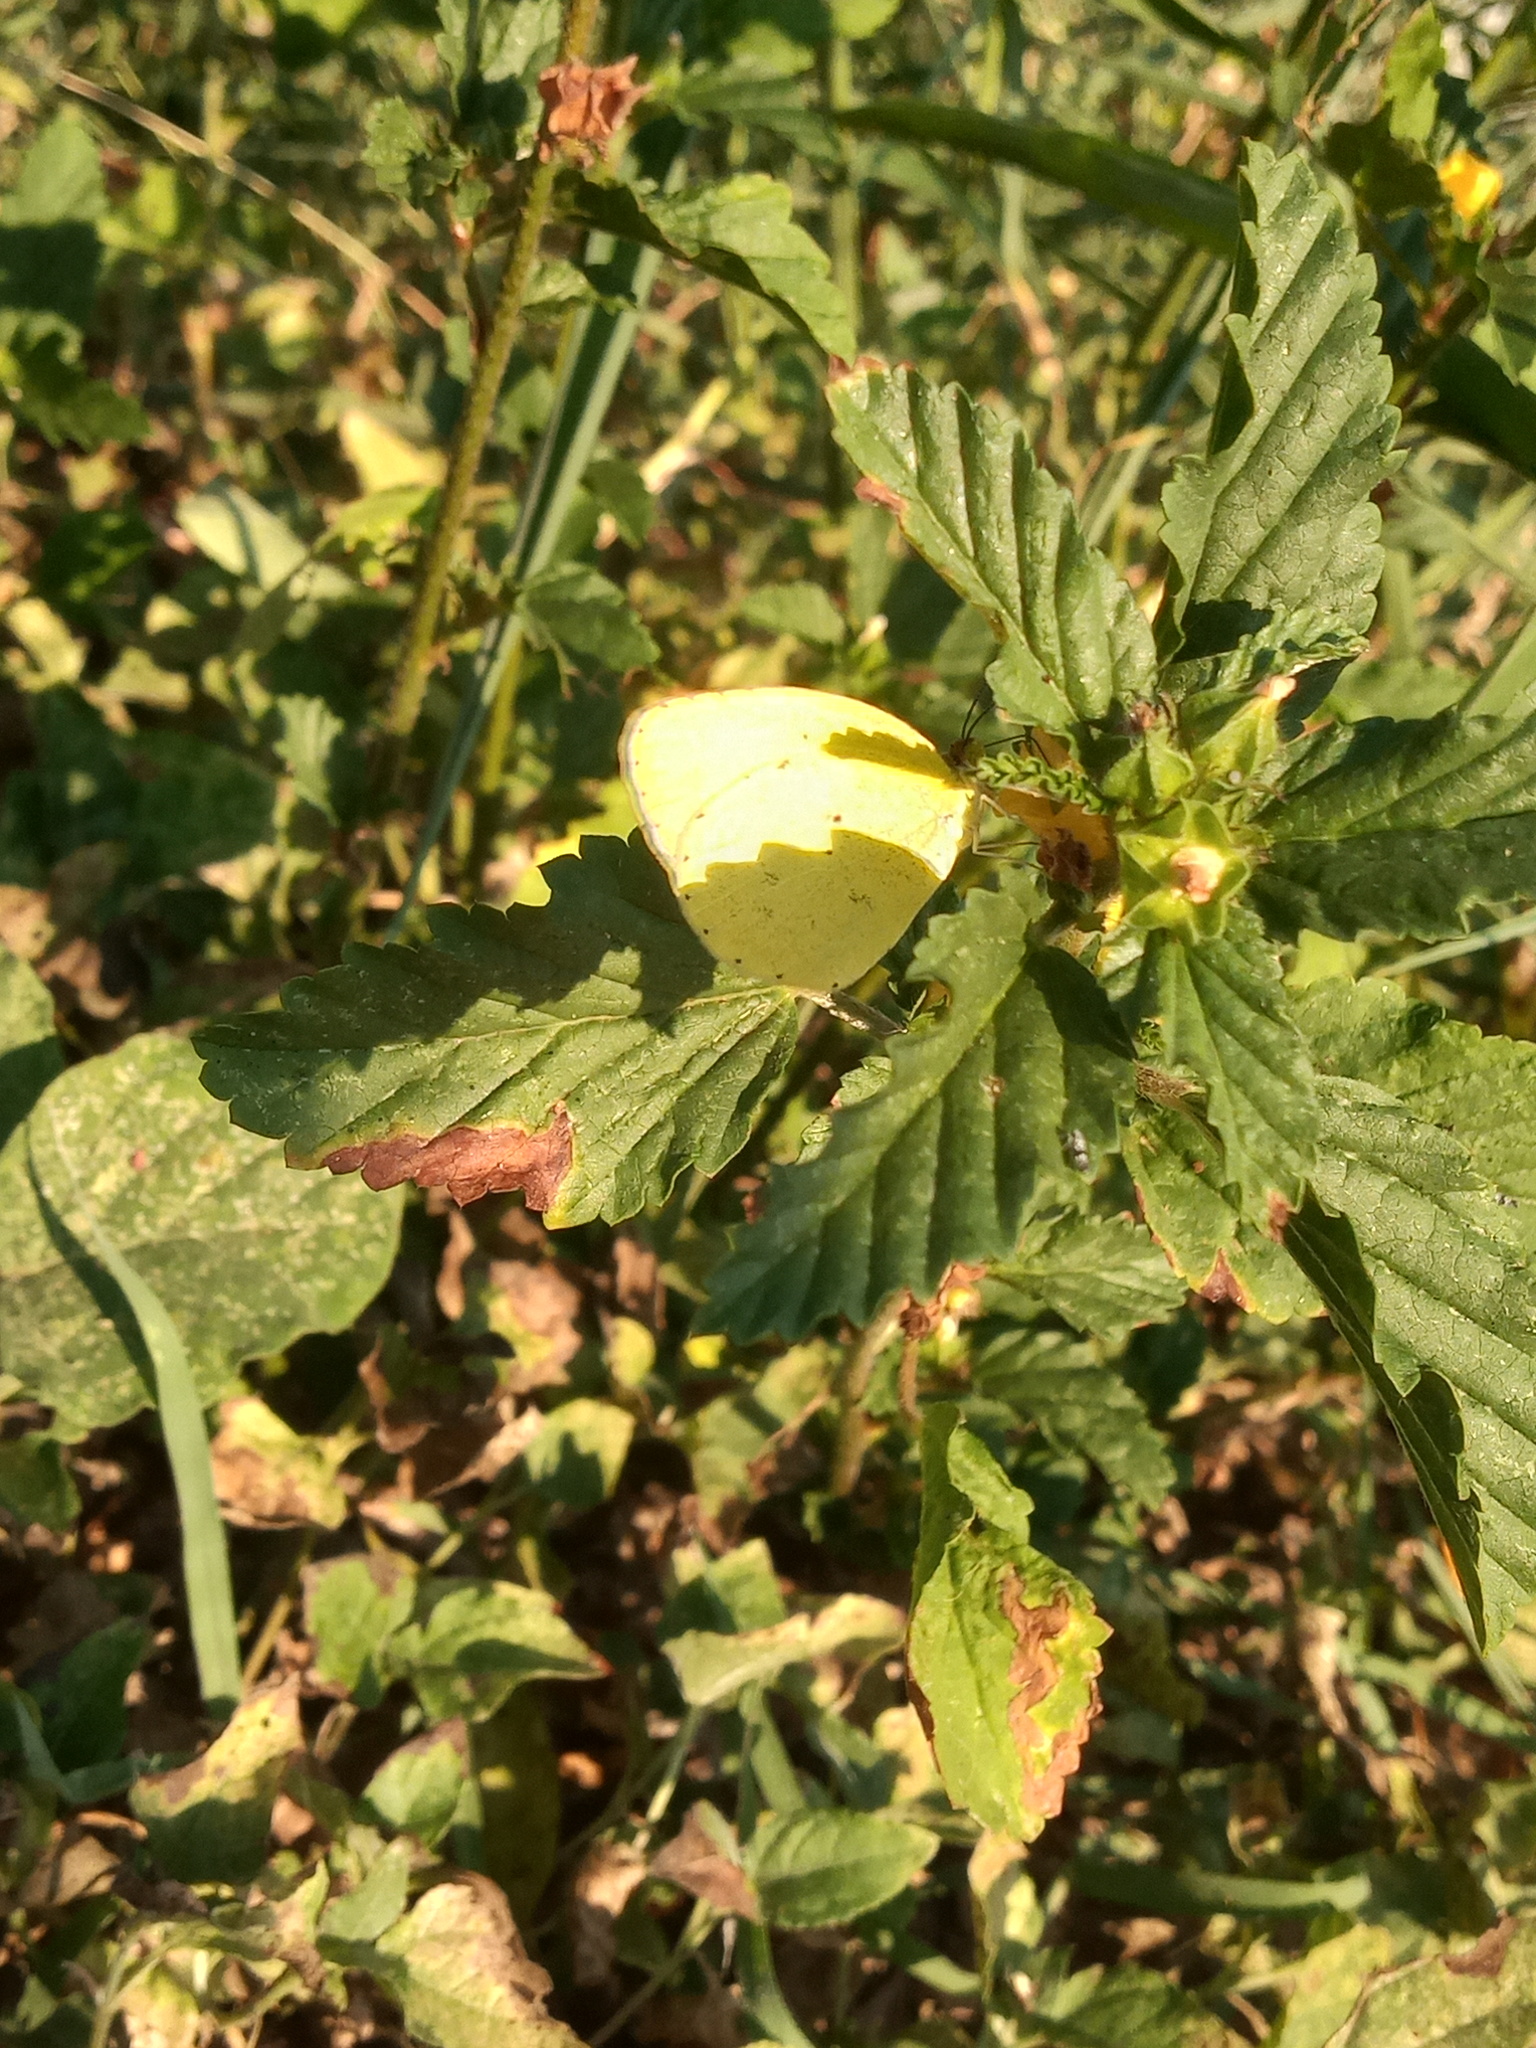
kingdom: Animalia
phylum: Arthropoda
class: Insecta
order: Lepidoptera
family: Pieridae
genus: Pyrisitia
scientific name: Pyrisitia nise
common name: Mimosa yellow
